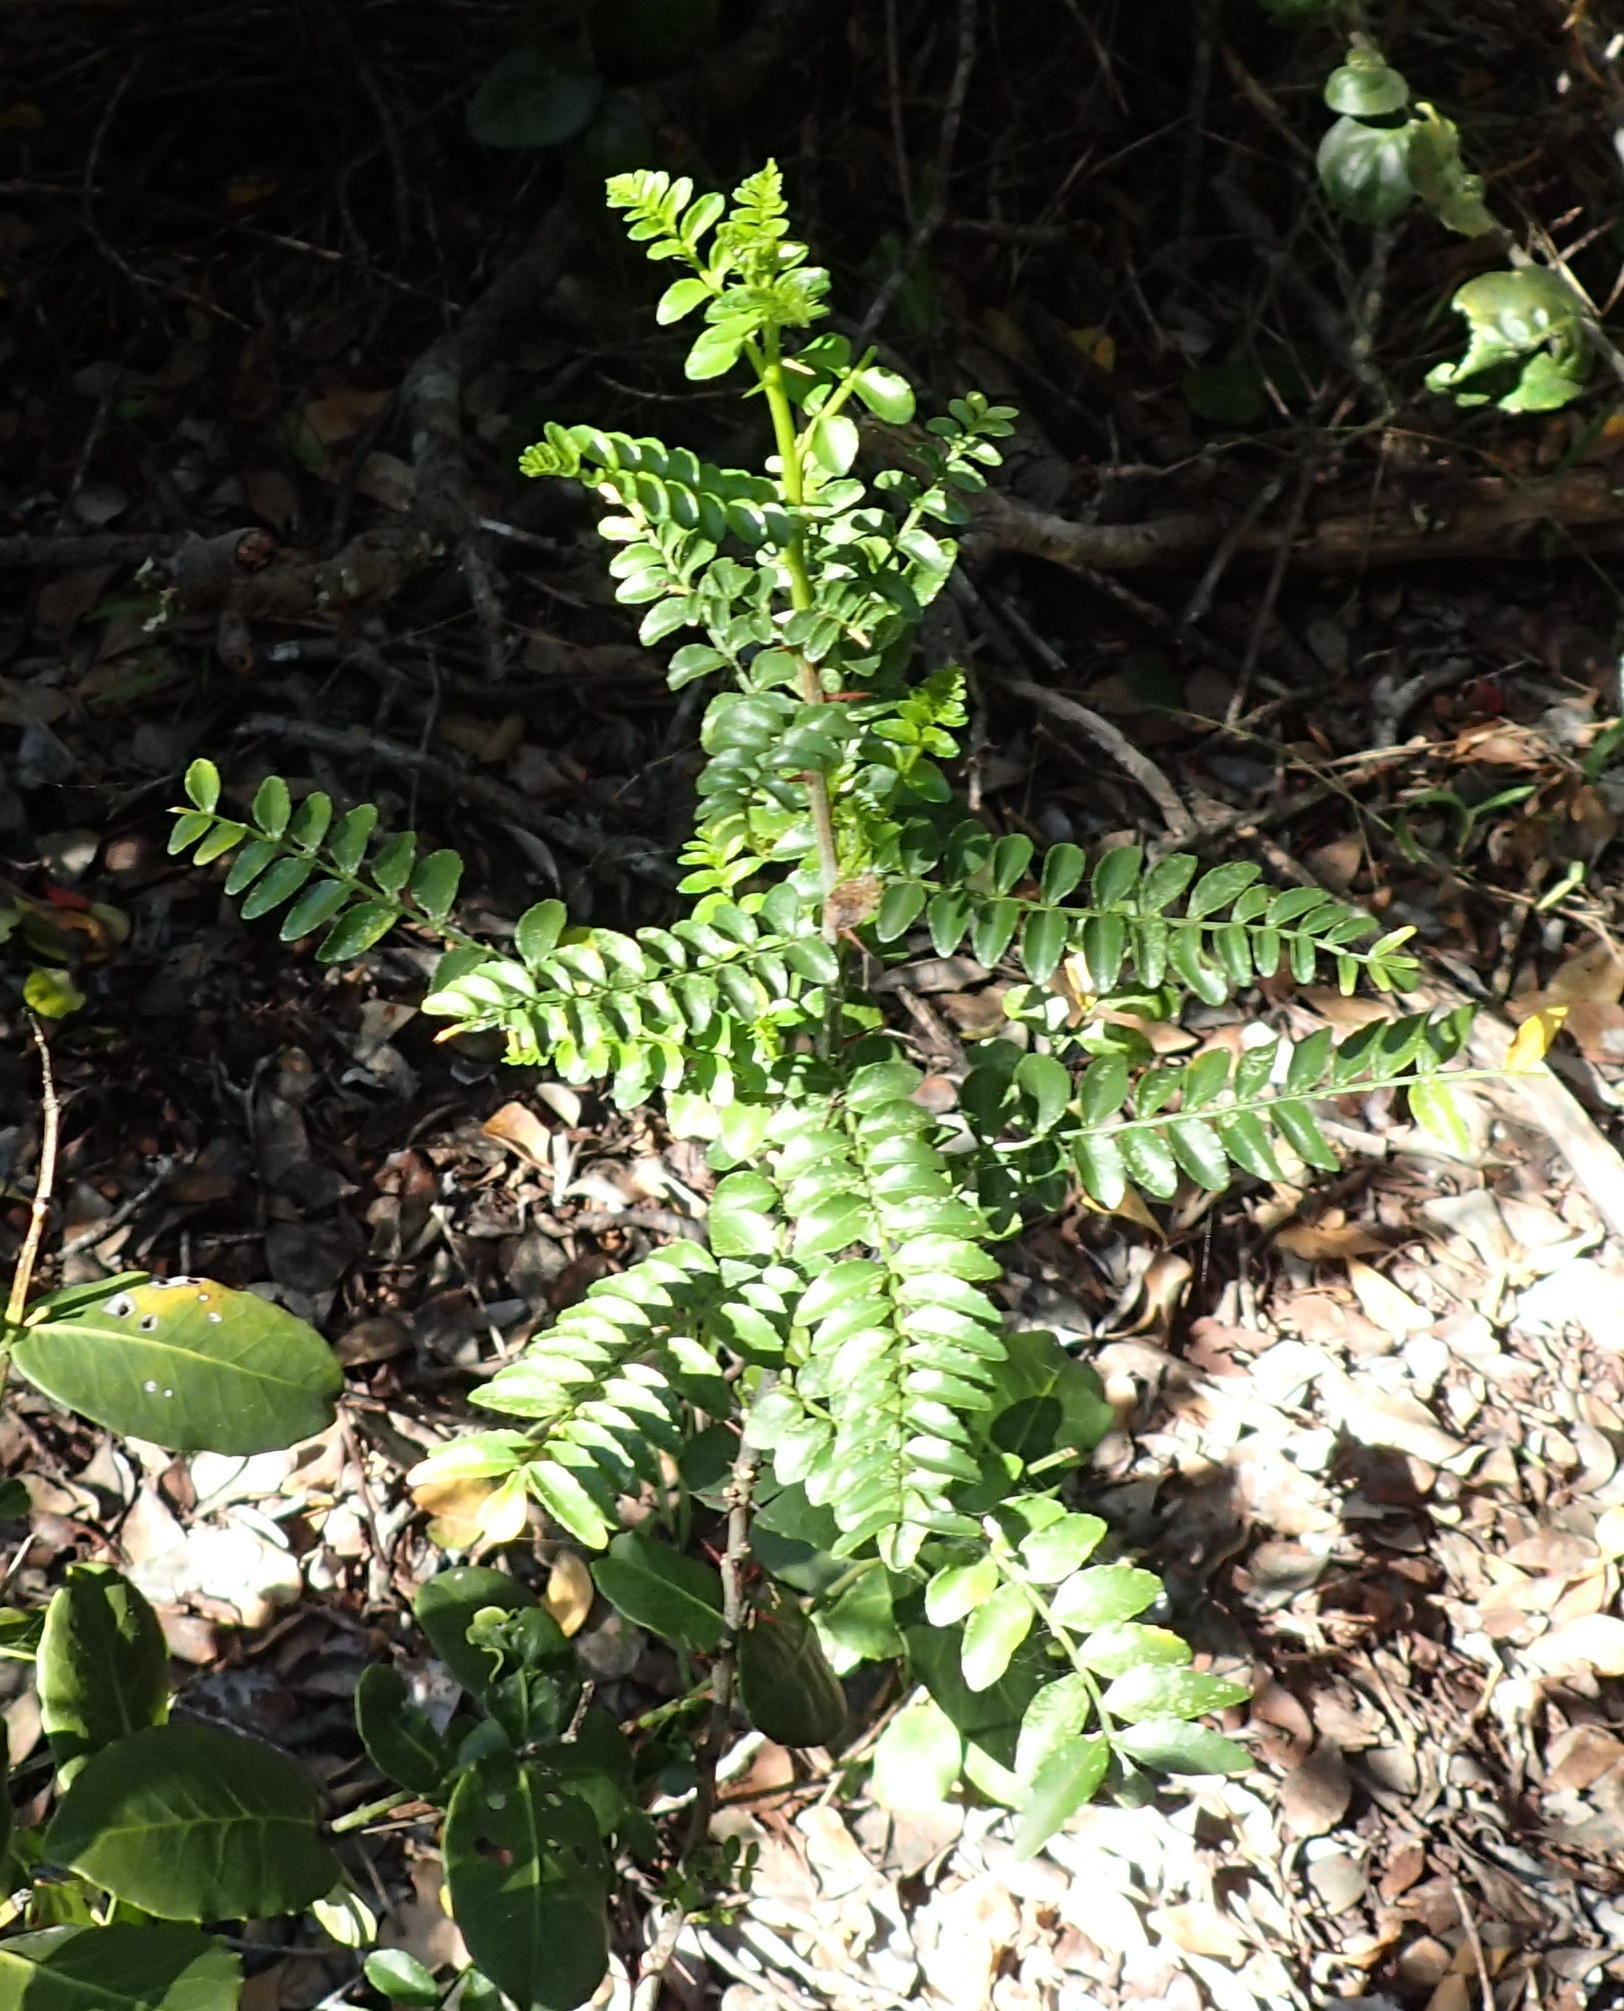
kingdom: Plantae
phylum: Tracheophyta
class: Magnoliopsida
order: Sapindales
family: Rutaceae
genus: Zanthoxylum
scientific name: Zanthoxylum davyi
